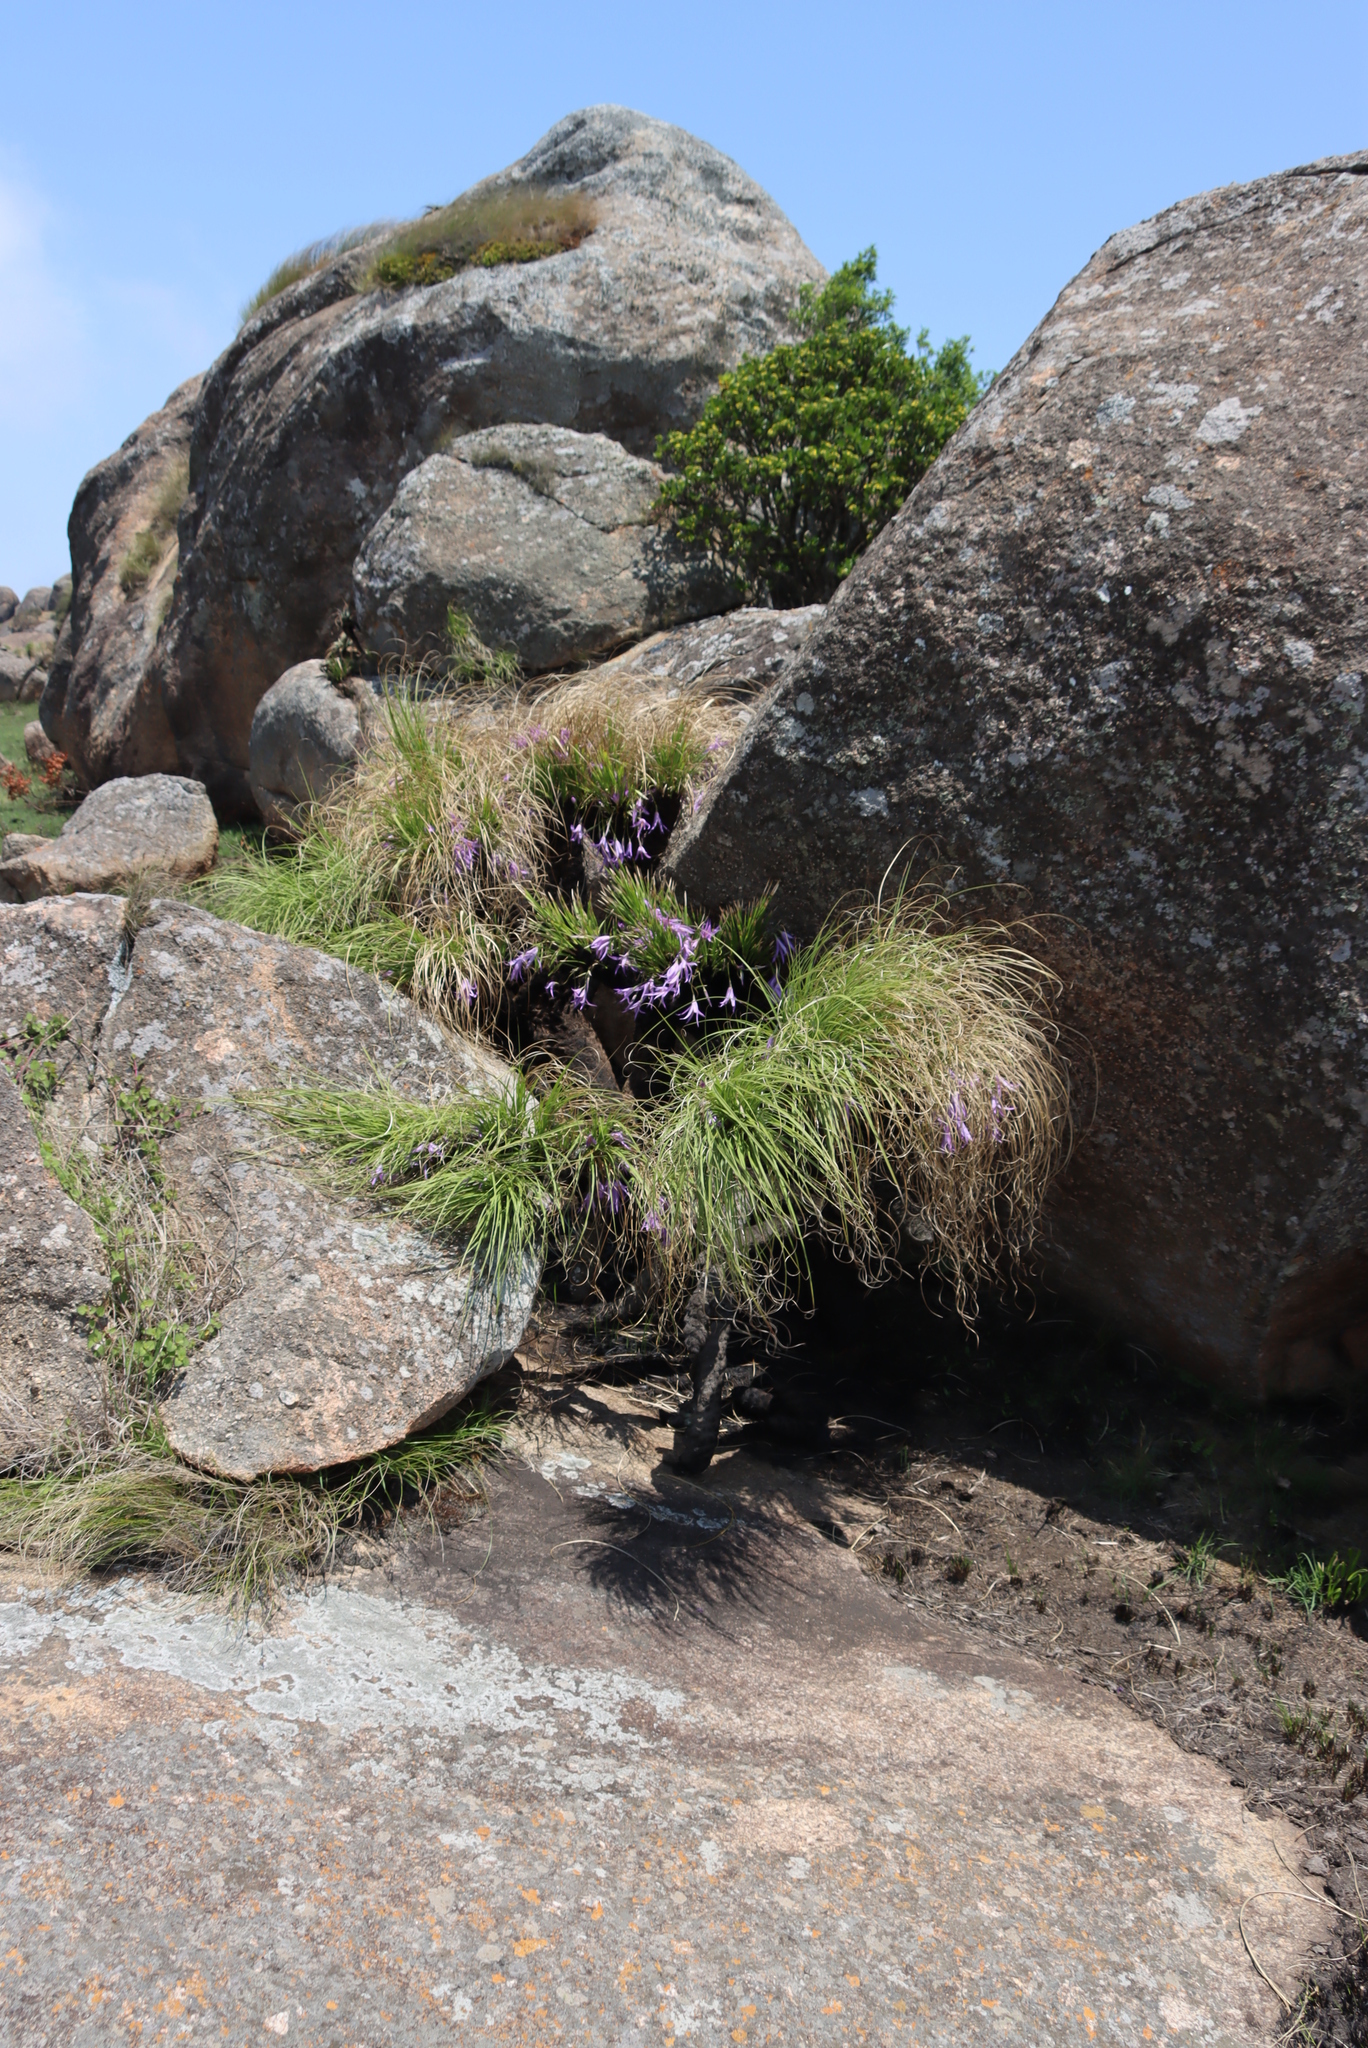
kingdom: Plantae
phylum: Tracheophyta
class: Liliopsida
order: Pandanales
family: Velloziaceae
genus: Xerophyta
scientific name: Xerophyta retinervis
